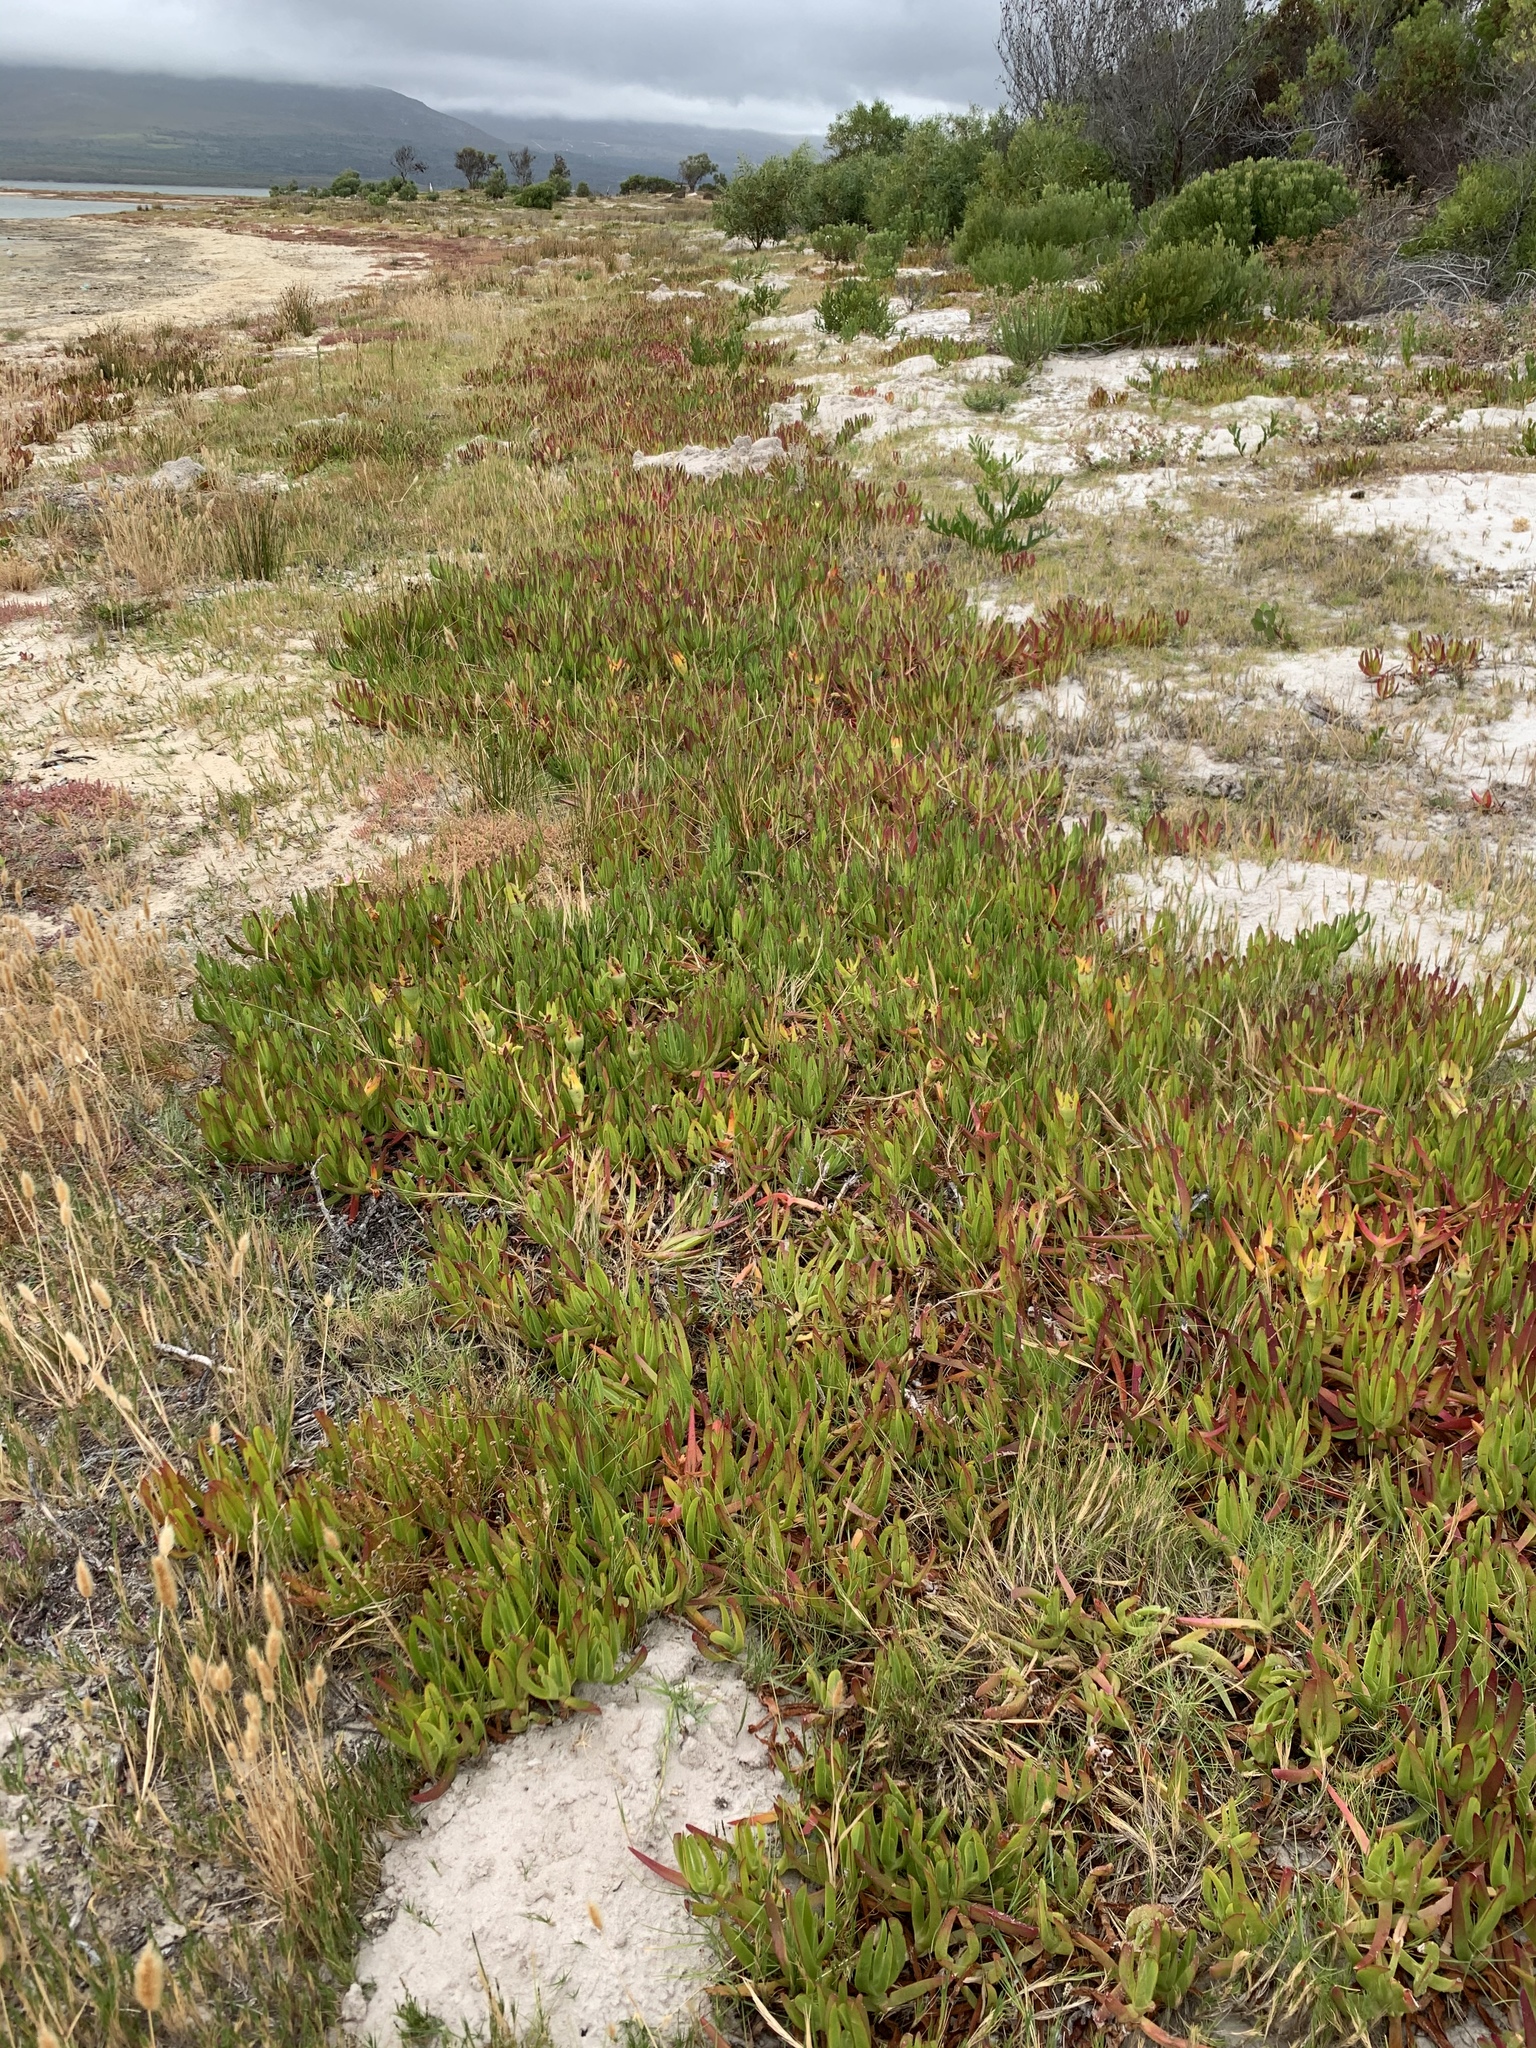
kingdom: Plantae
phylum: Tracheophyta
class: Magnoliopsida
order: Caryophyllales
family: Aizoaceae
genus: Carpobrotus
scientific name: Carpobrotus edulis
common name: Hottentot-fig
